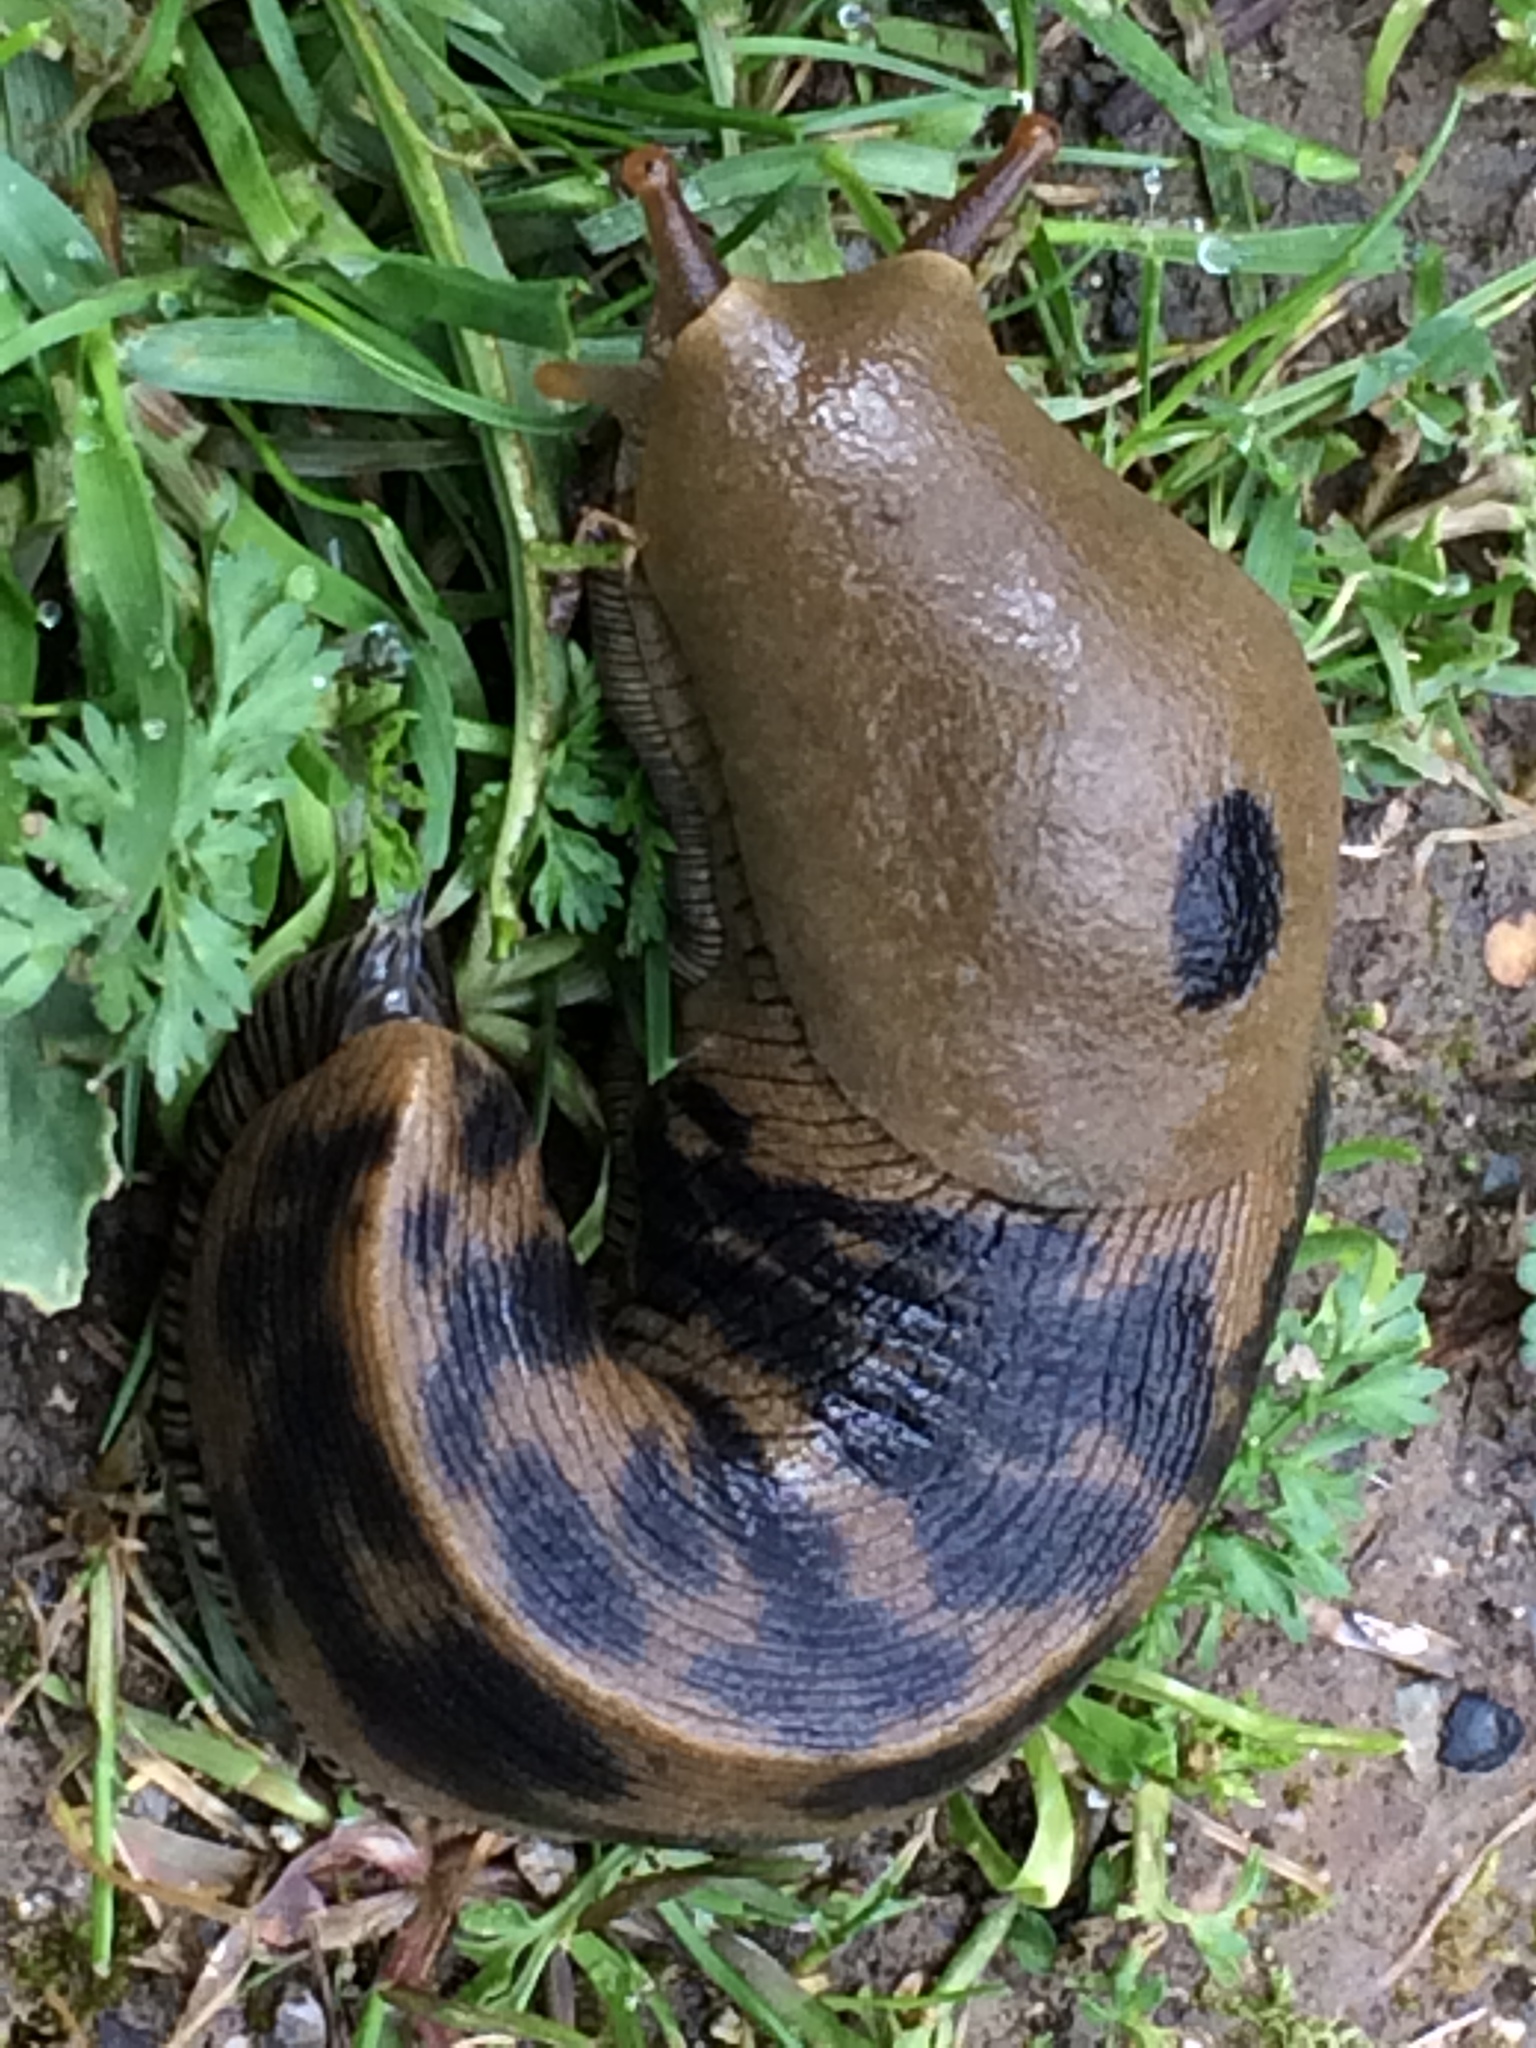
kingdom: Animalia
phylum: Mollusca
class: Gastropoda
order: Stylommatophora
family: Ariolimacidae
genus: Ariolimax
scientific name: Ariolimax buttoni
